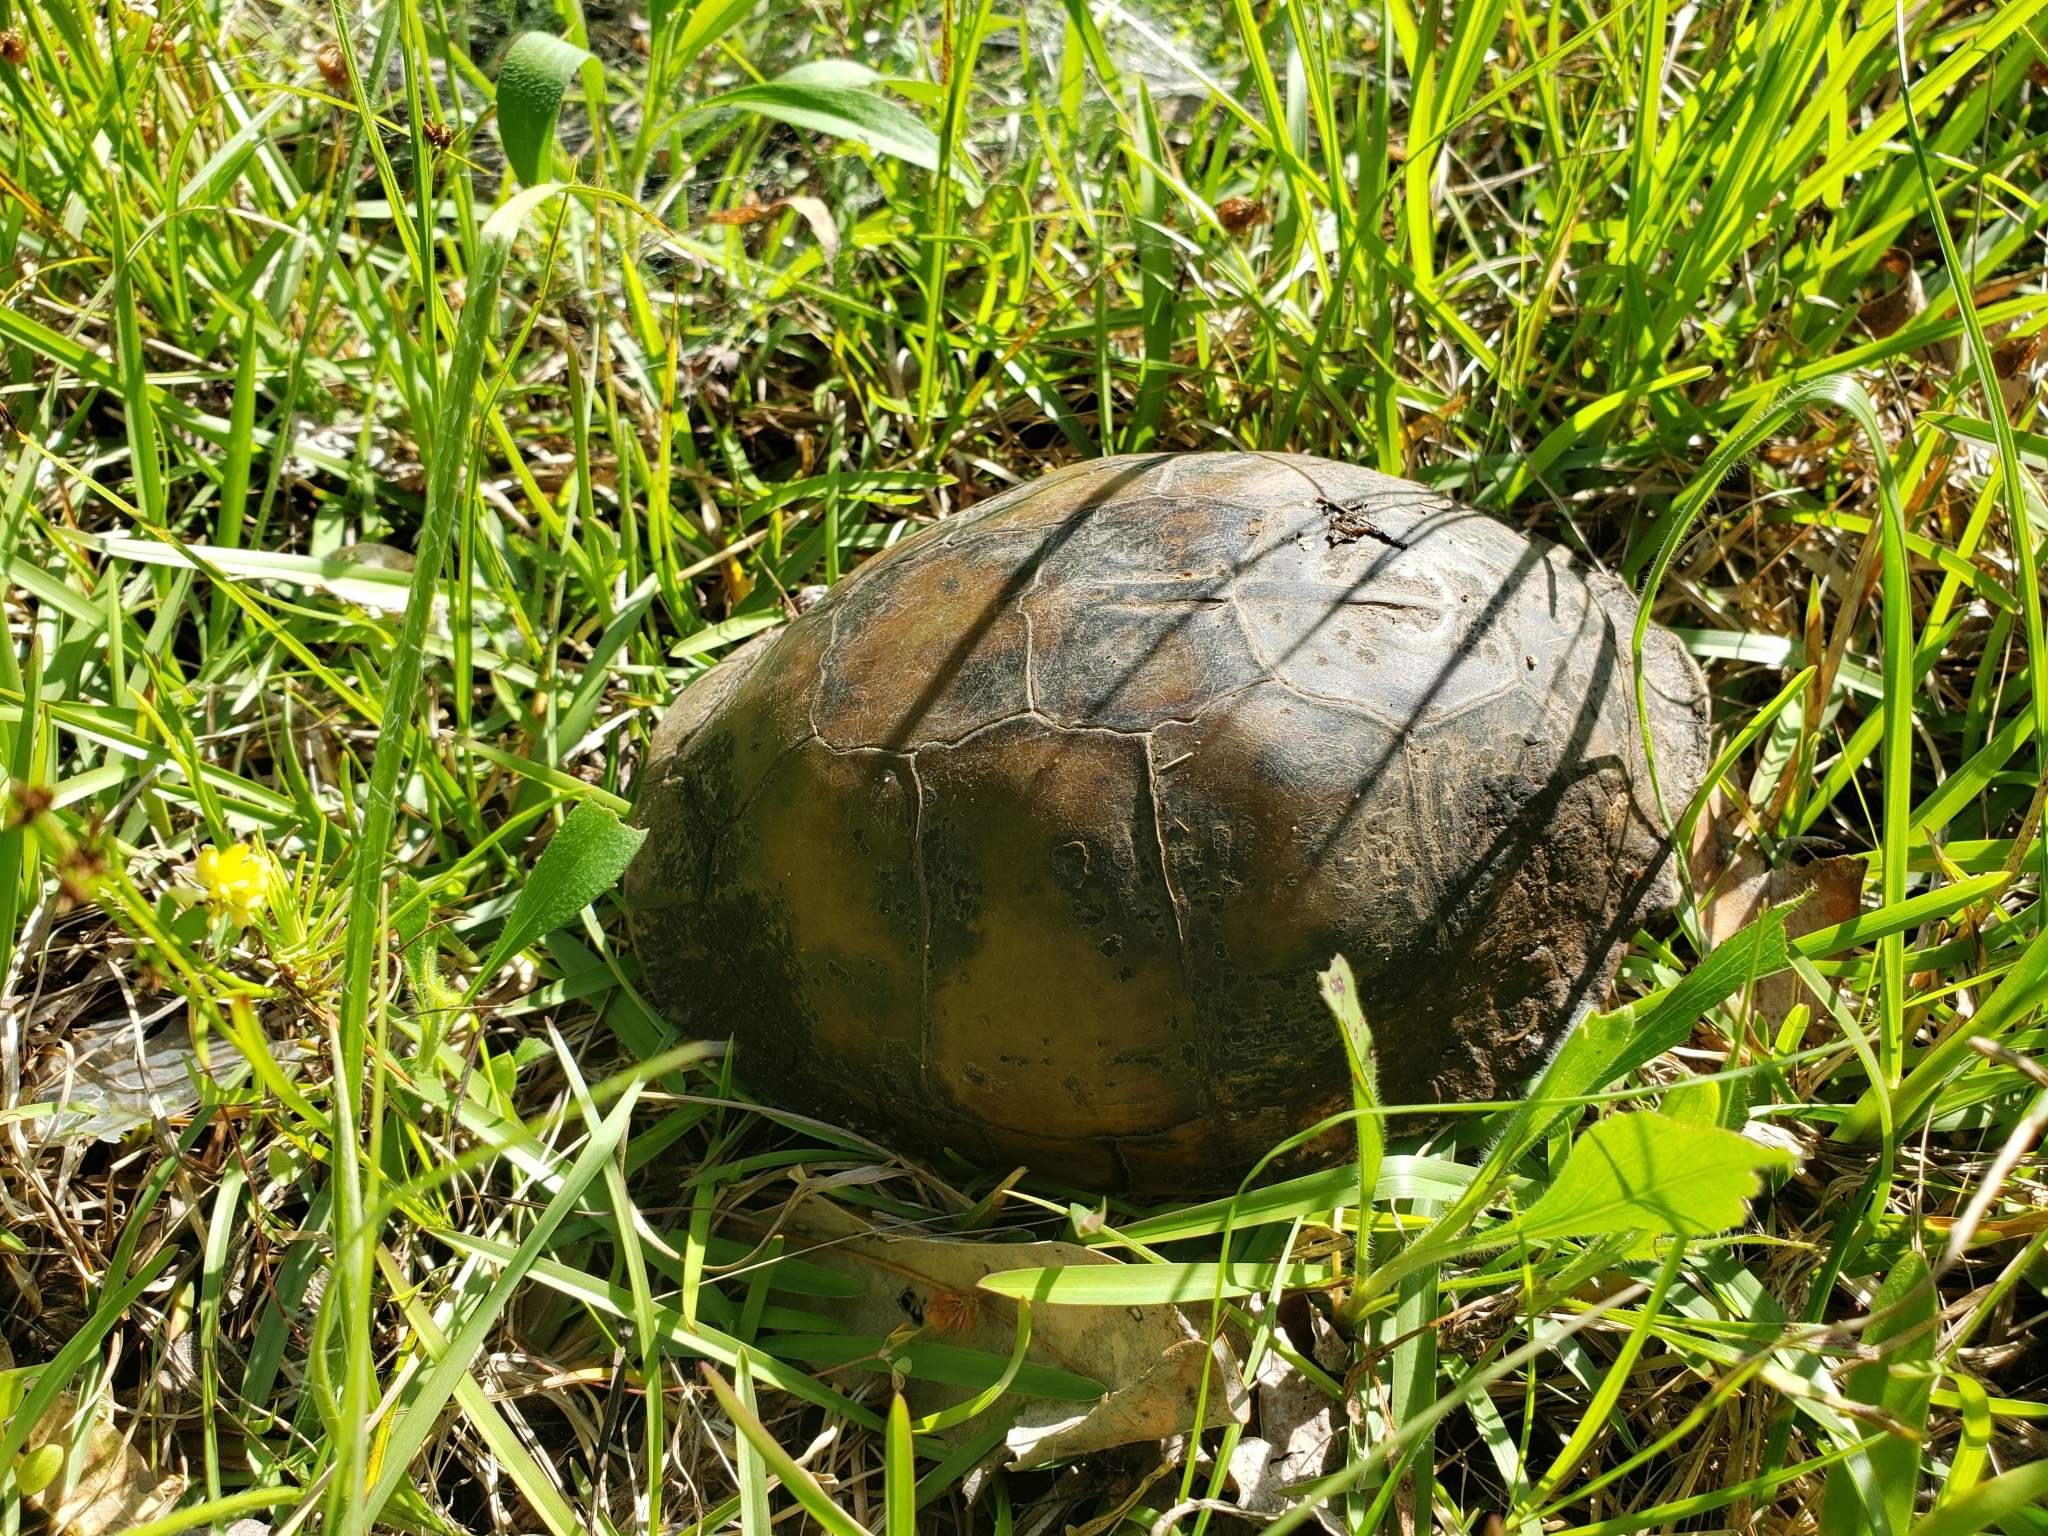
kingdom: Animalia
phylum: Chordata
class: Testudines
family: Emydidae
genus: Terrapene
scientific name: Terrapene carolina
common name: Common box turtle
